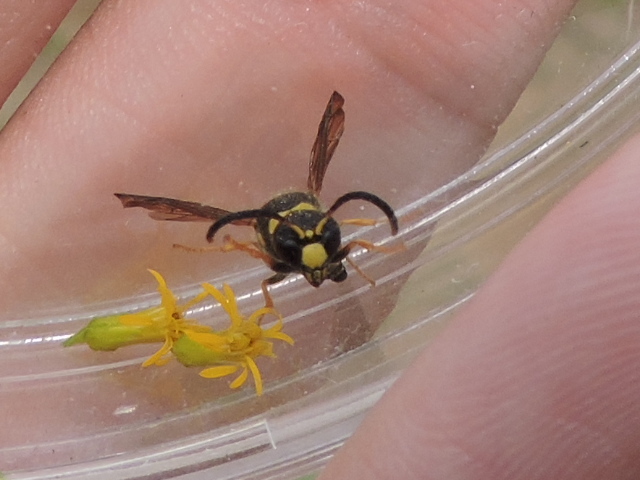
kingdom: Animalia
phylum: Arthropoda
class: Insecta
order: Hymenoptera
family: Vespidae
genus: Ancistrocerus
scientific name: Ancistrocerus campestris
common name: Smiling mason wasp
